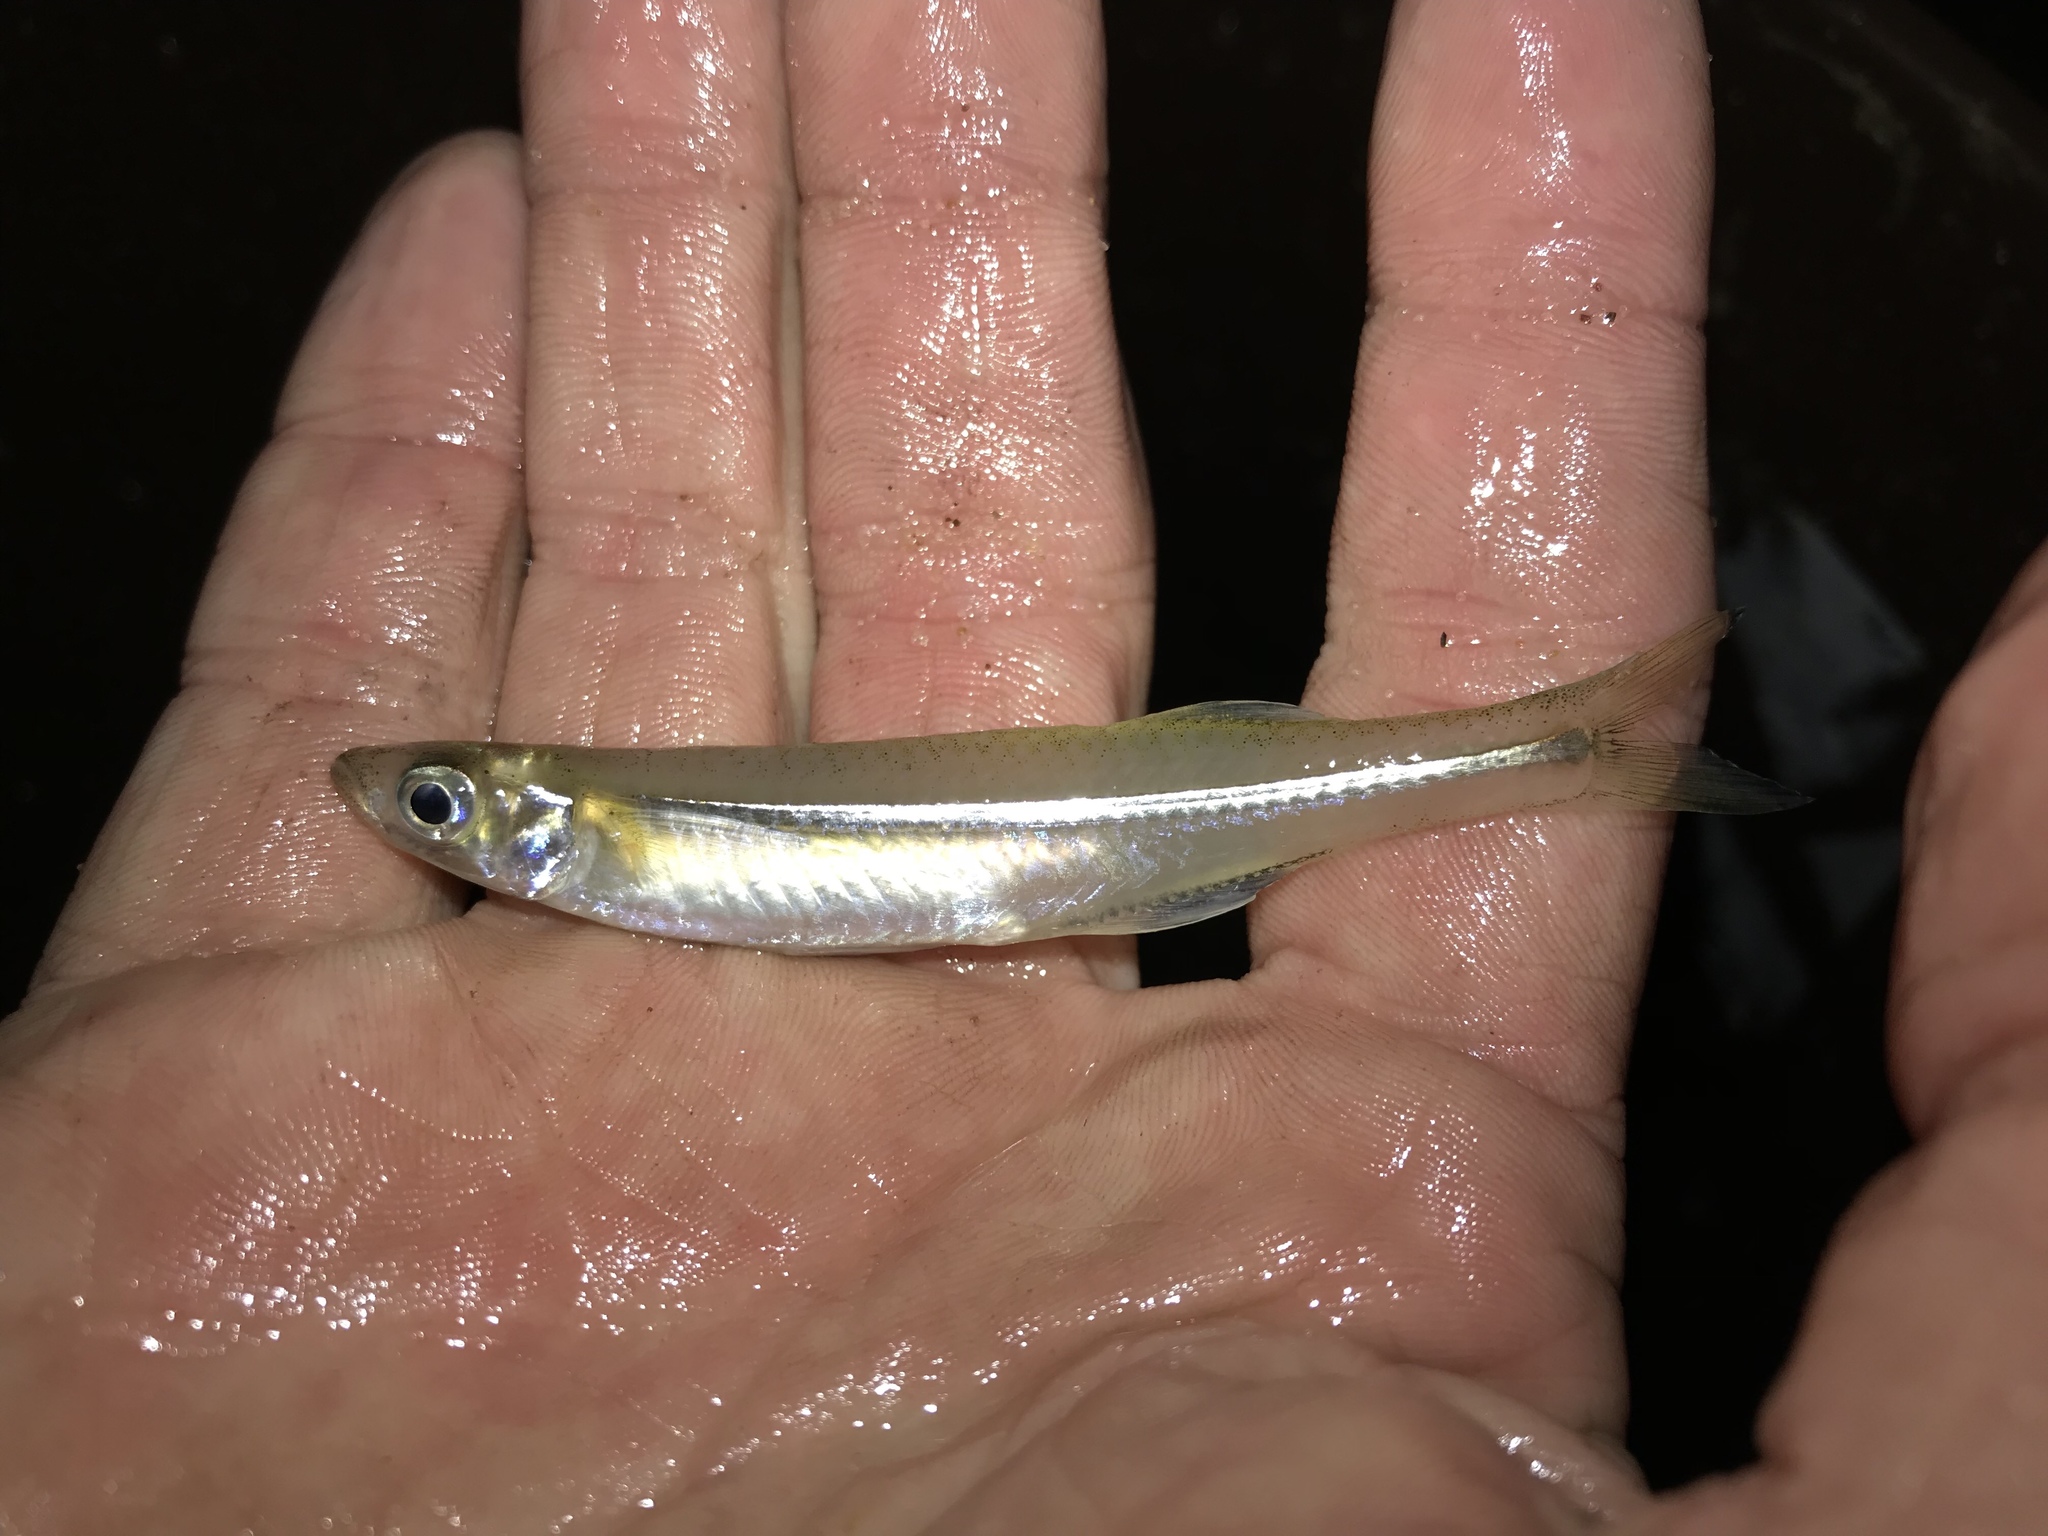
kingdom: Animalia
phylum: Chordata
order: Atheriniformes
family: Atherinopsidae
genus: Menidia
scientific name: Menidia beryllina
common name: Inland silverside
